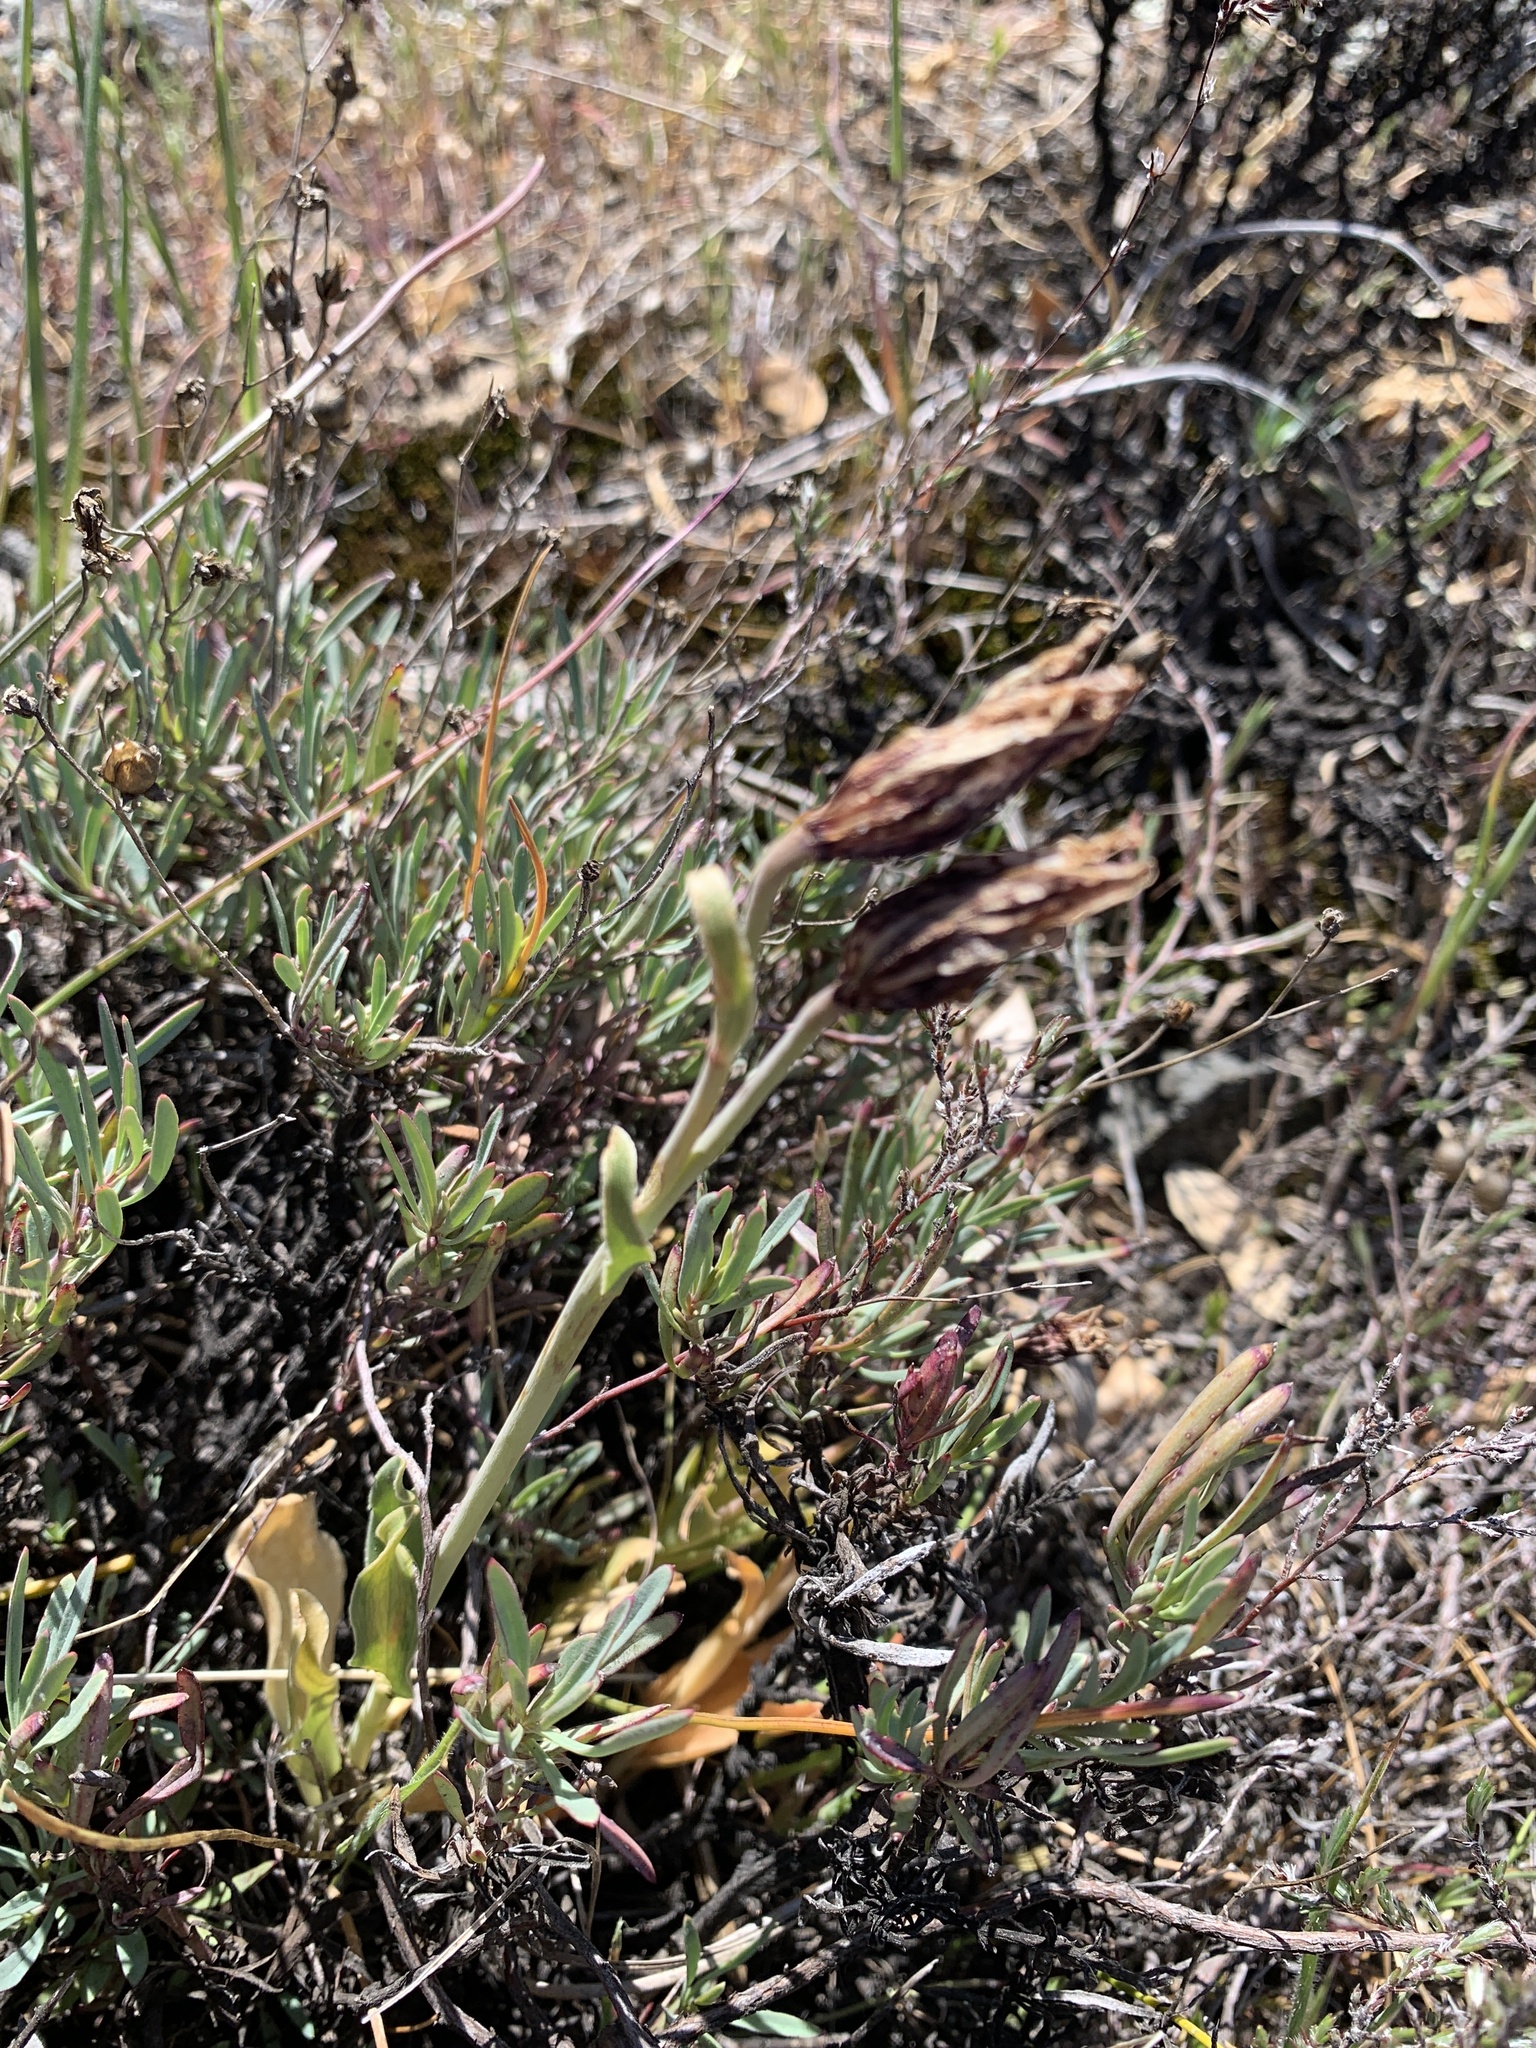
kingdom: Plantae
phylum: Tracheophyta
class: Liliopsida
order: Liliales
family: Liliaceae
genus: Fritillaria
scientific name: Fritillaria purdyi
